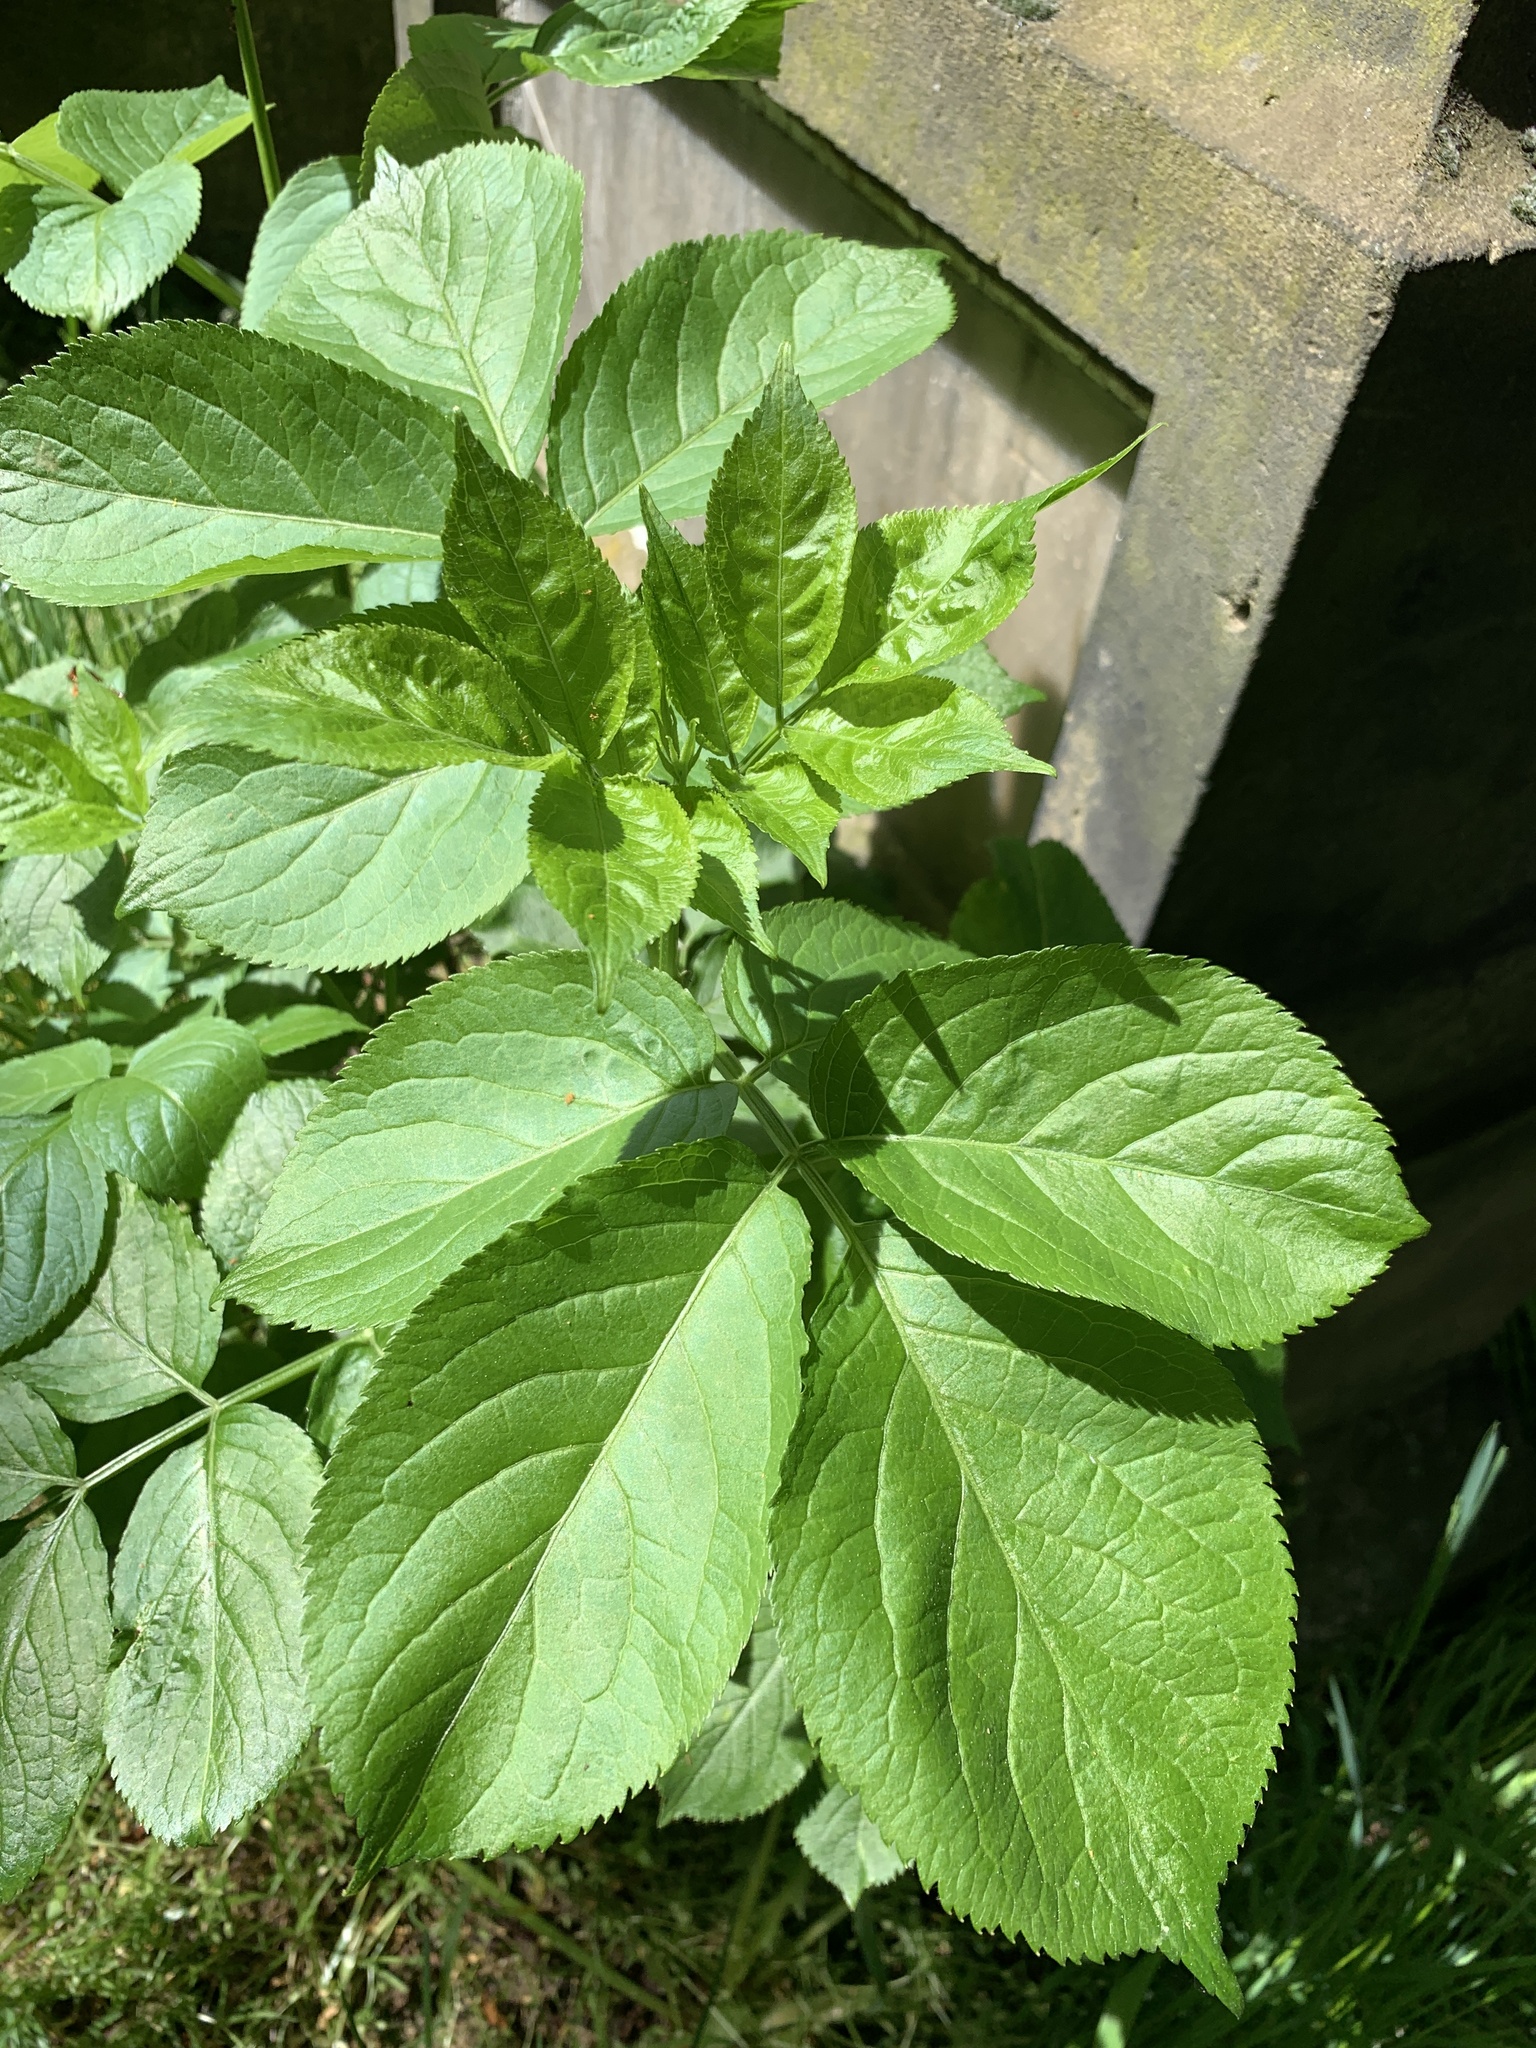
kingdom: Plantae
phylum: Tracheophyta
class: Magnoliopsida
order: Dipsacales
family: Viburnaceae
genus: Sambucus
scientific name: Sambucus nigra
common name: Elder
